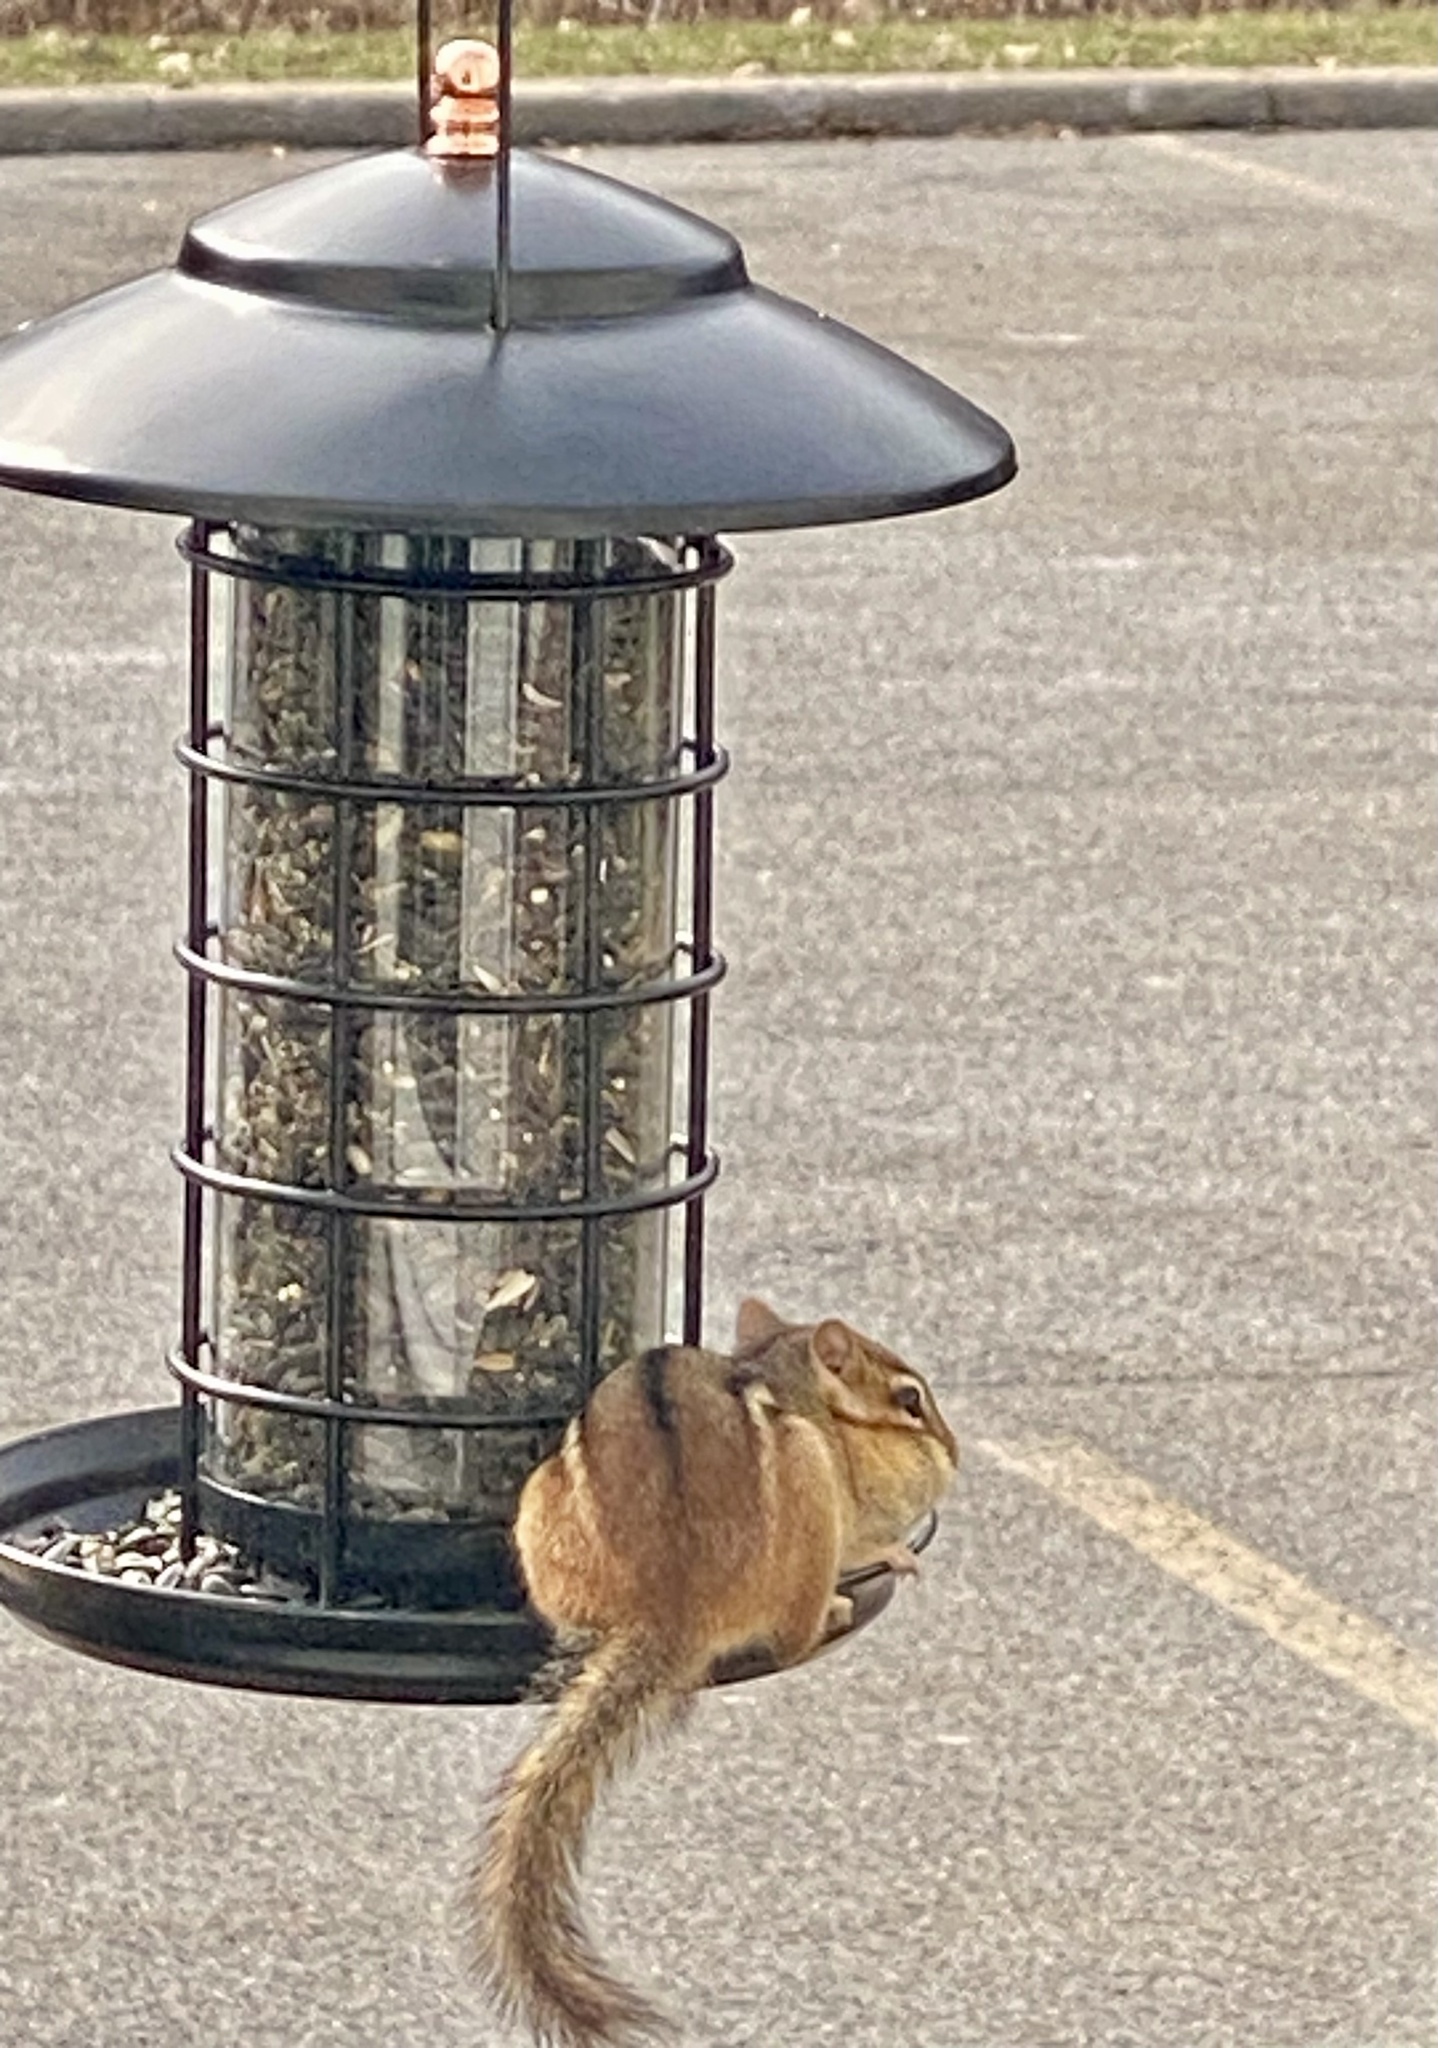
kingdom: Animalia
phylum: Chordata
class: Mammalia
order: Rodentia
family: Sciuridae
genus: Tamias
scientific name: Tamias striatus
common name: Eastern chipmunk
